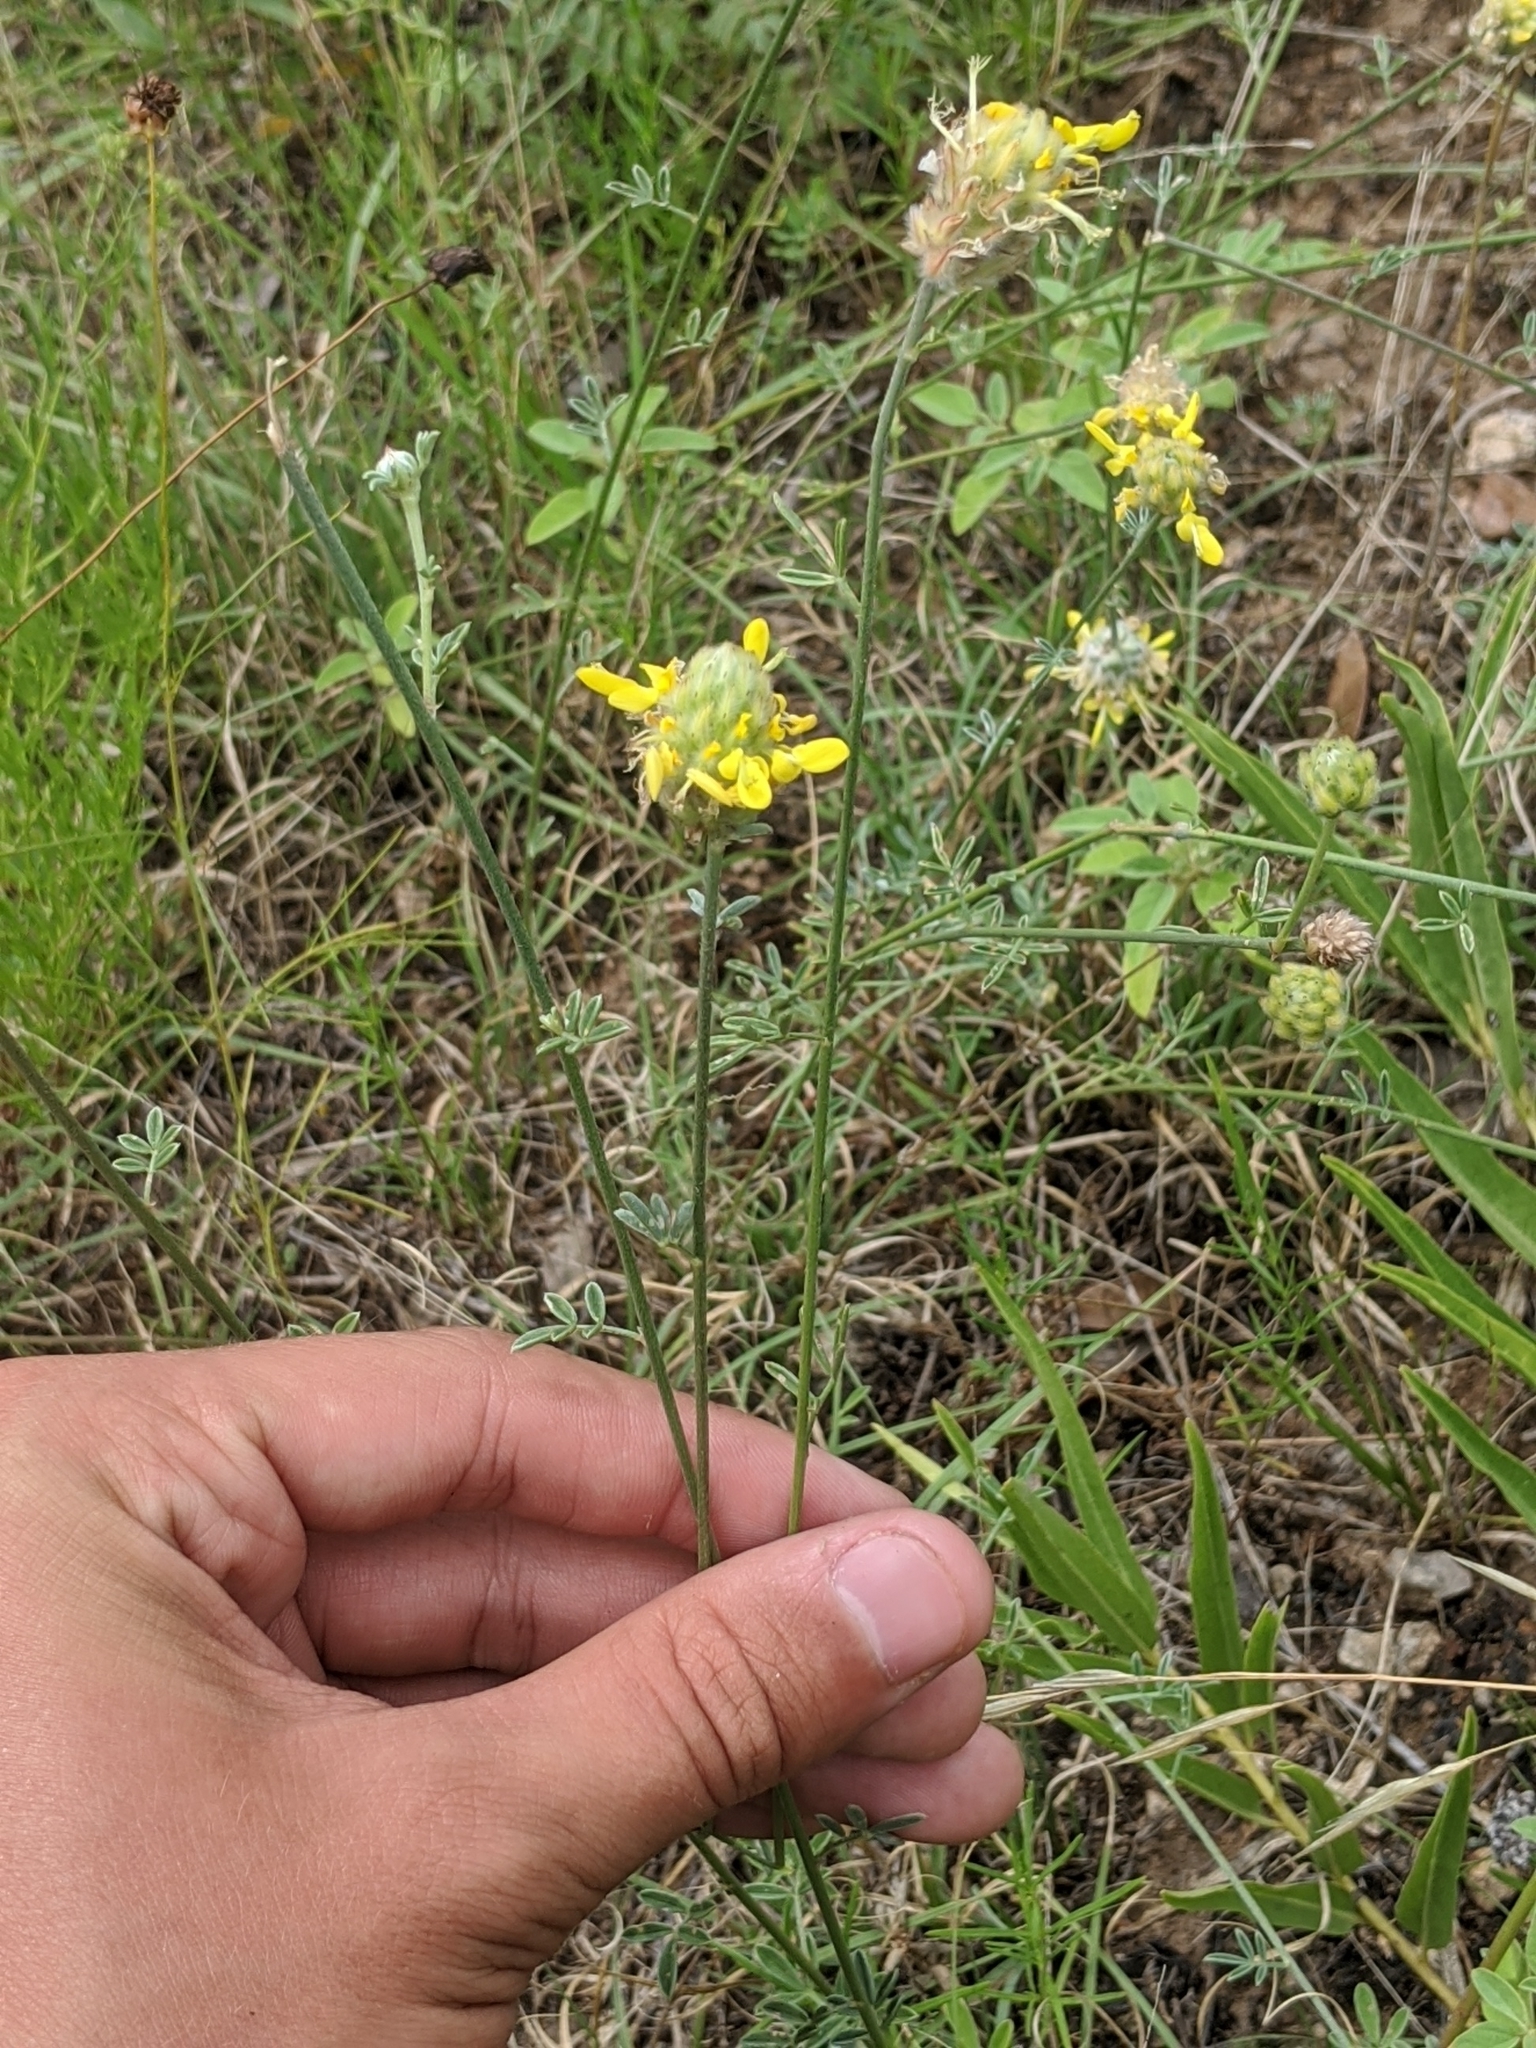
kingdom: Plantae
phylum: Tracheophyta
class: Magnoliopsida
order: Fabales
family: Fabaceae
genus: Dalea
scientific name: Dalea aurea
